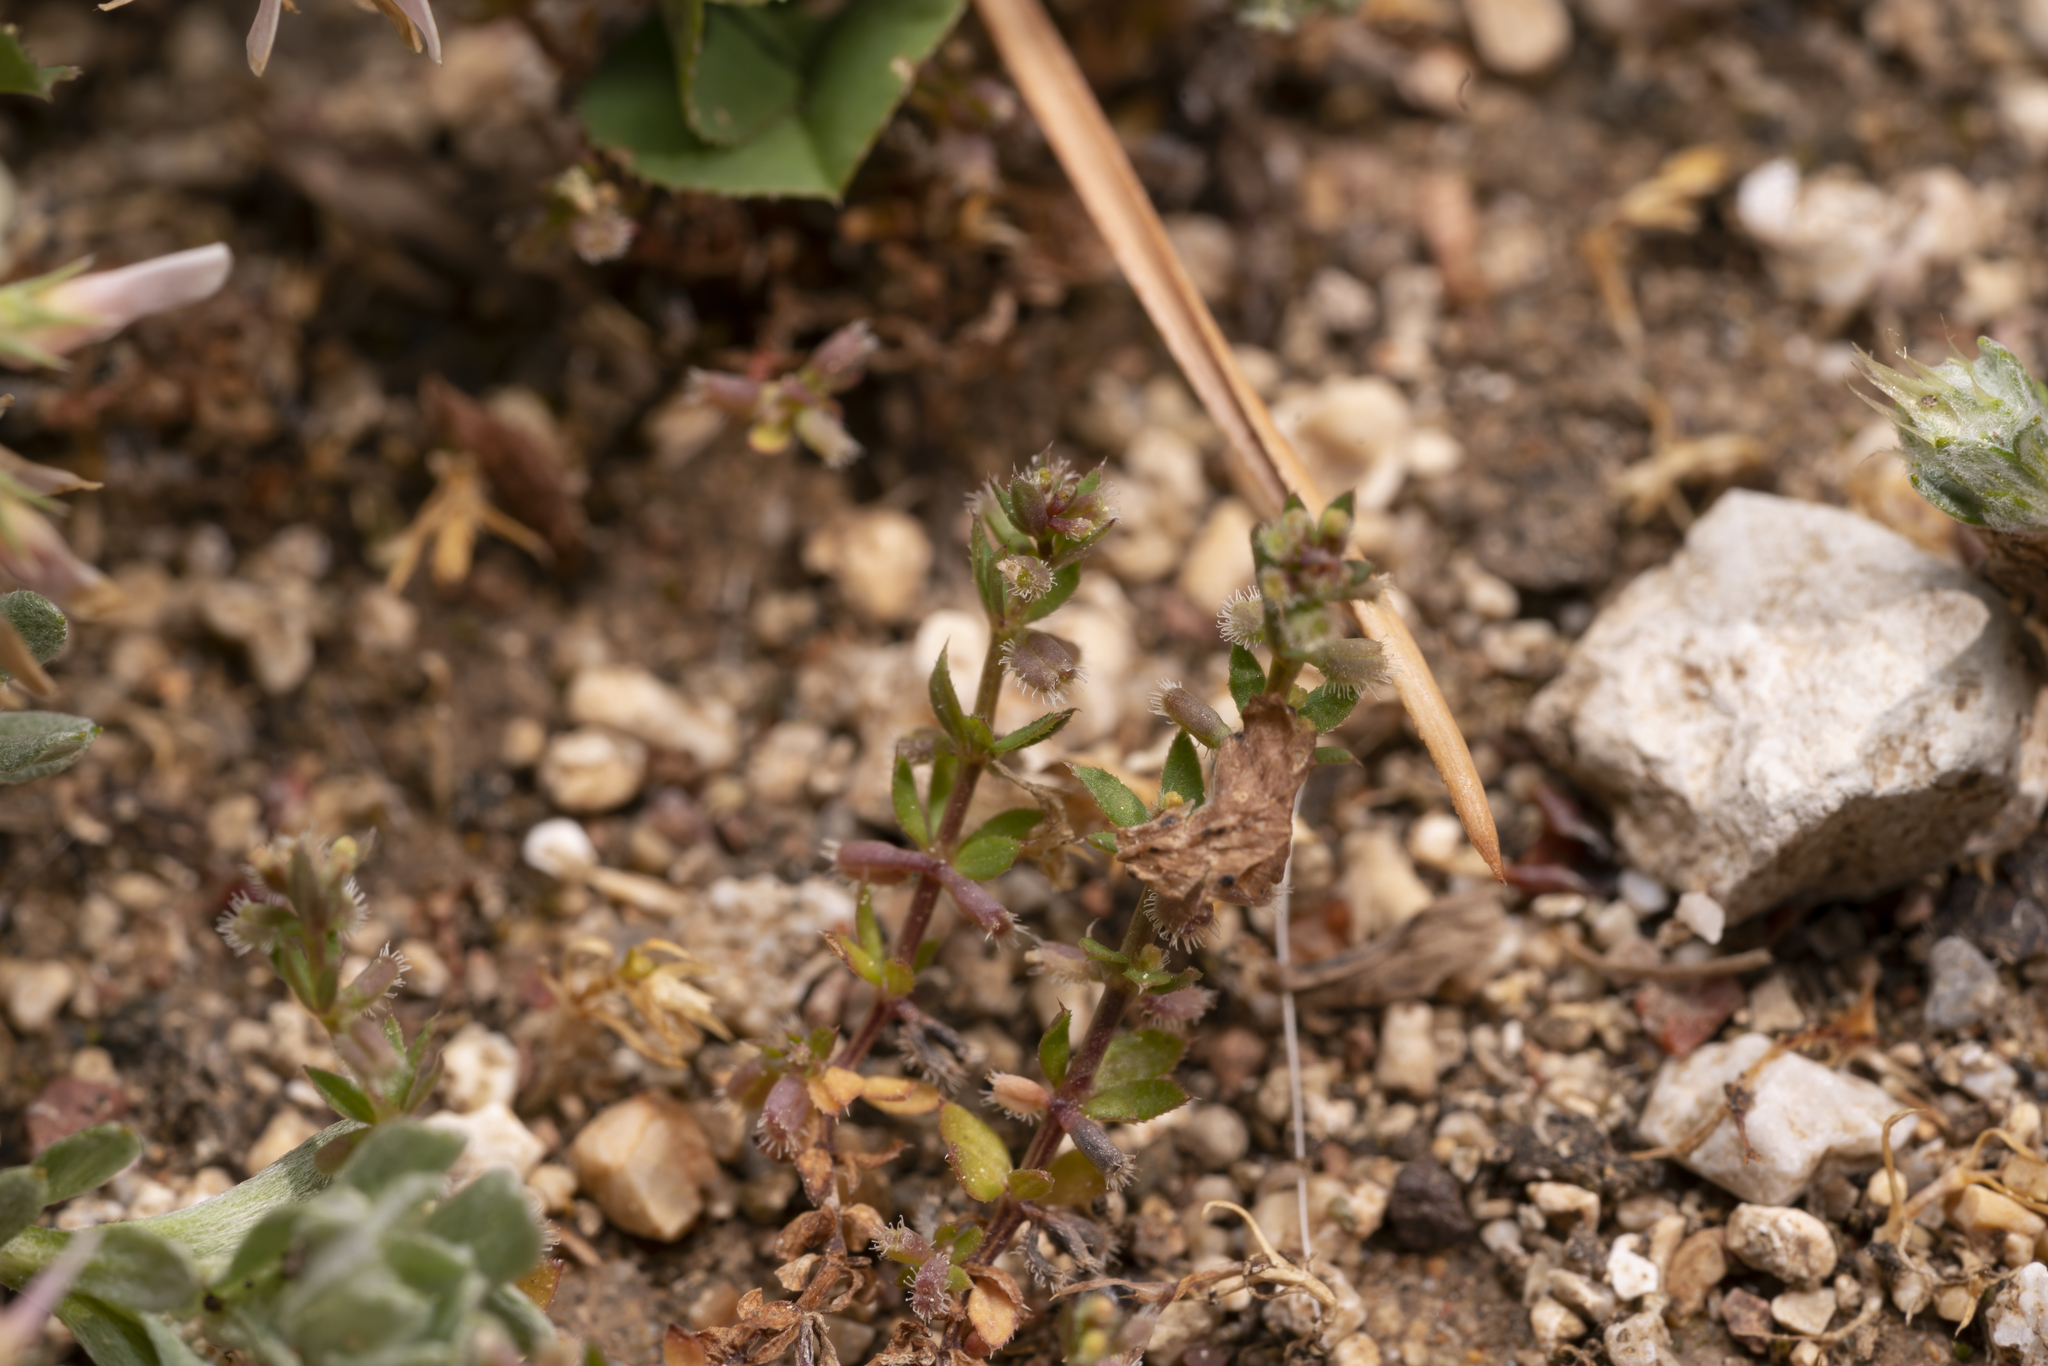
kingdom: Plantae
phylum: Tracheophyta
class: Magnoliopsida
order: Gentianales
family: Rubiaceae
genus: Galium
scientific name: Galium murale
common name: Yellow wall bedstraw
